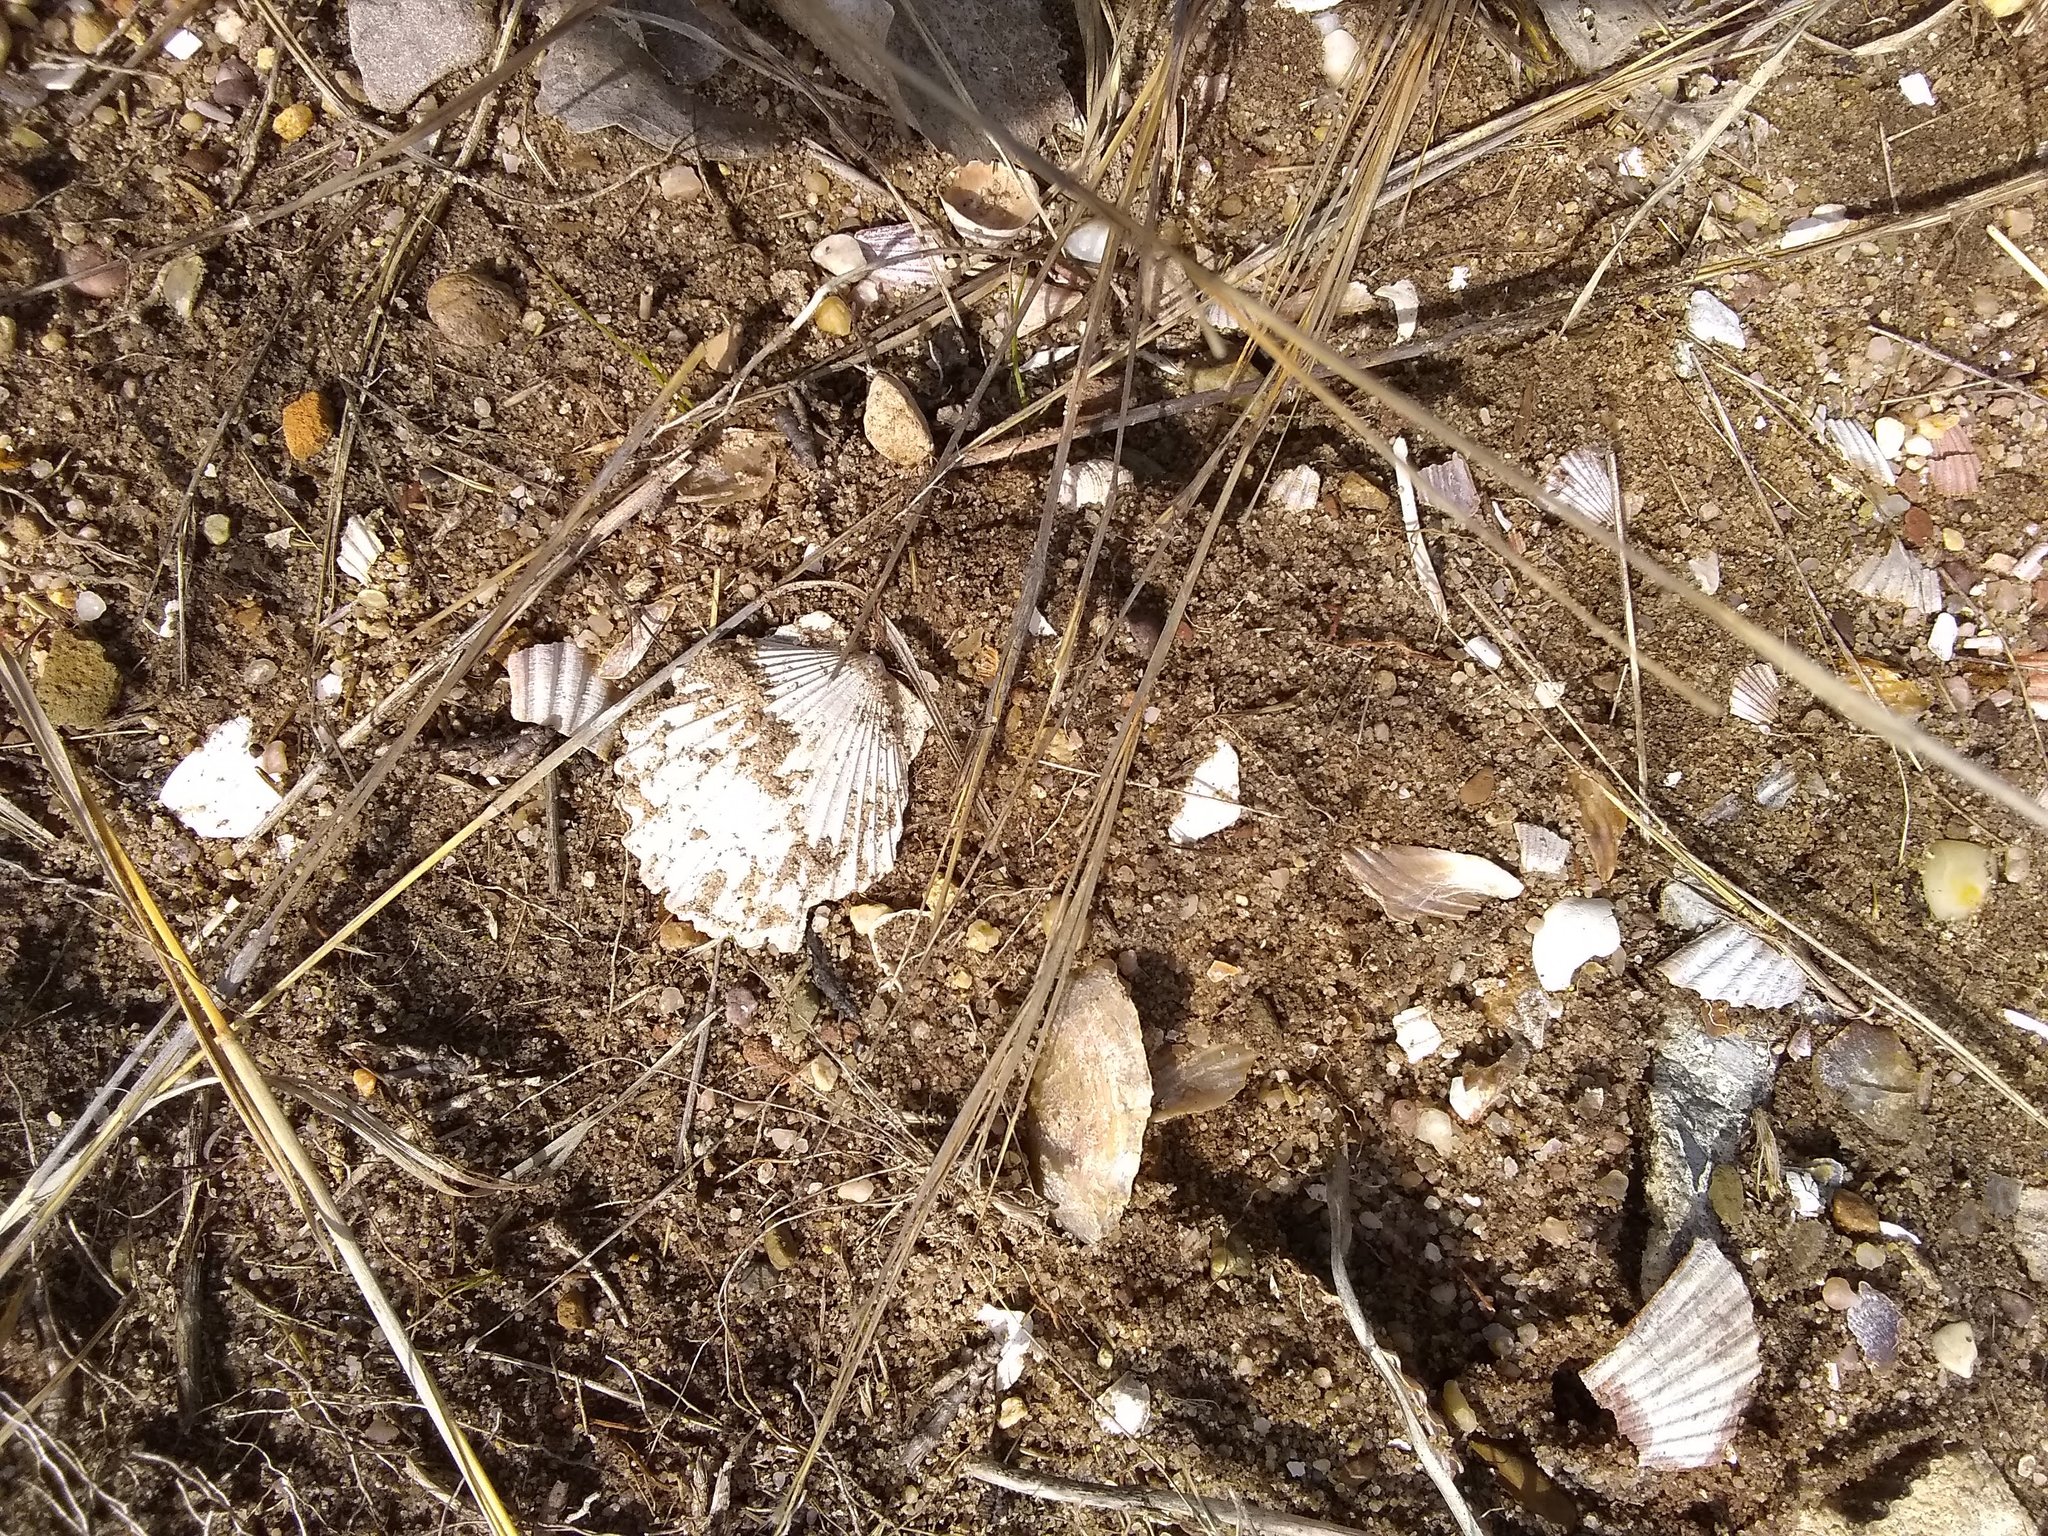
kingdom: Animalia
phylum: Mollusca
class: Bivalvia
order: Pectinida
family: Pectinidae
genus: Argopecten
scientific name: Argopecten irradians
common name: Atlantic bay scallop
